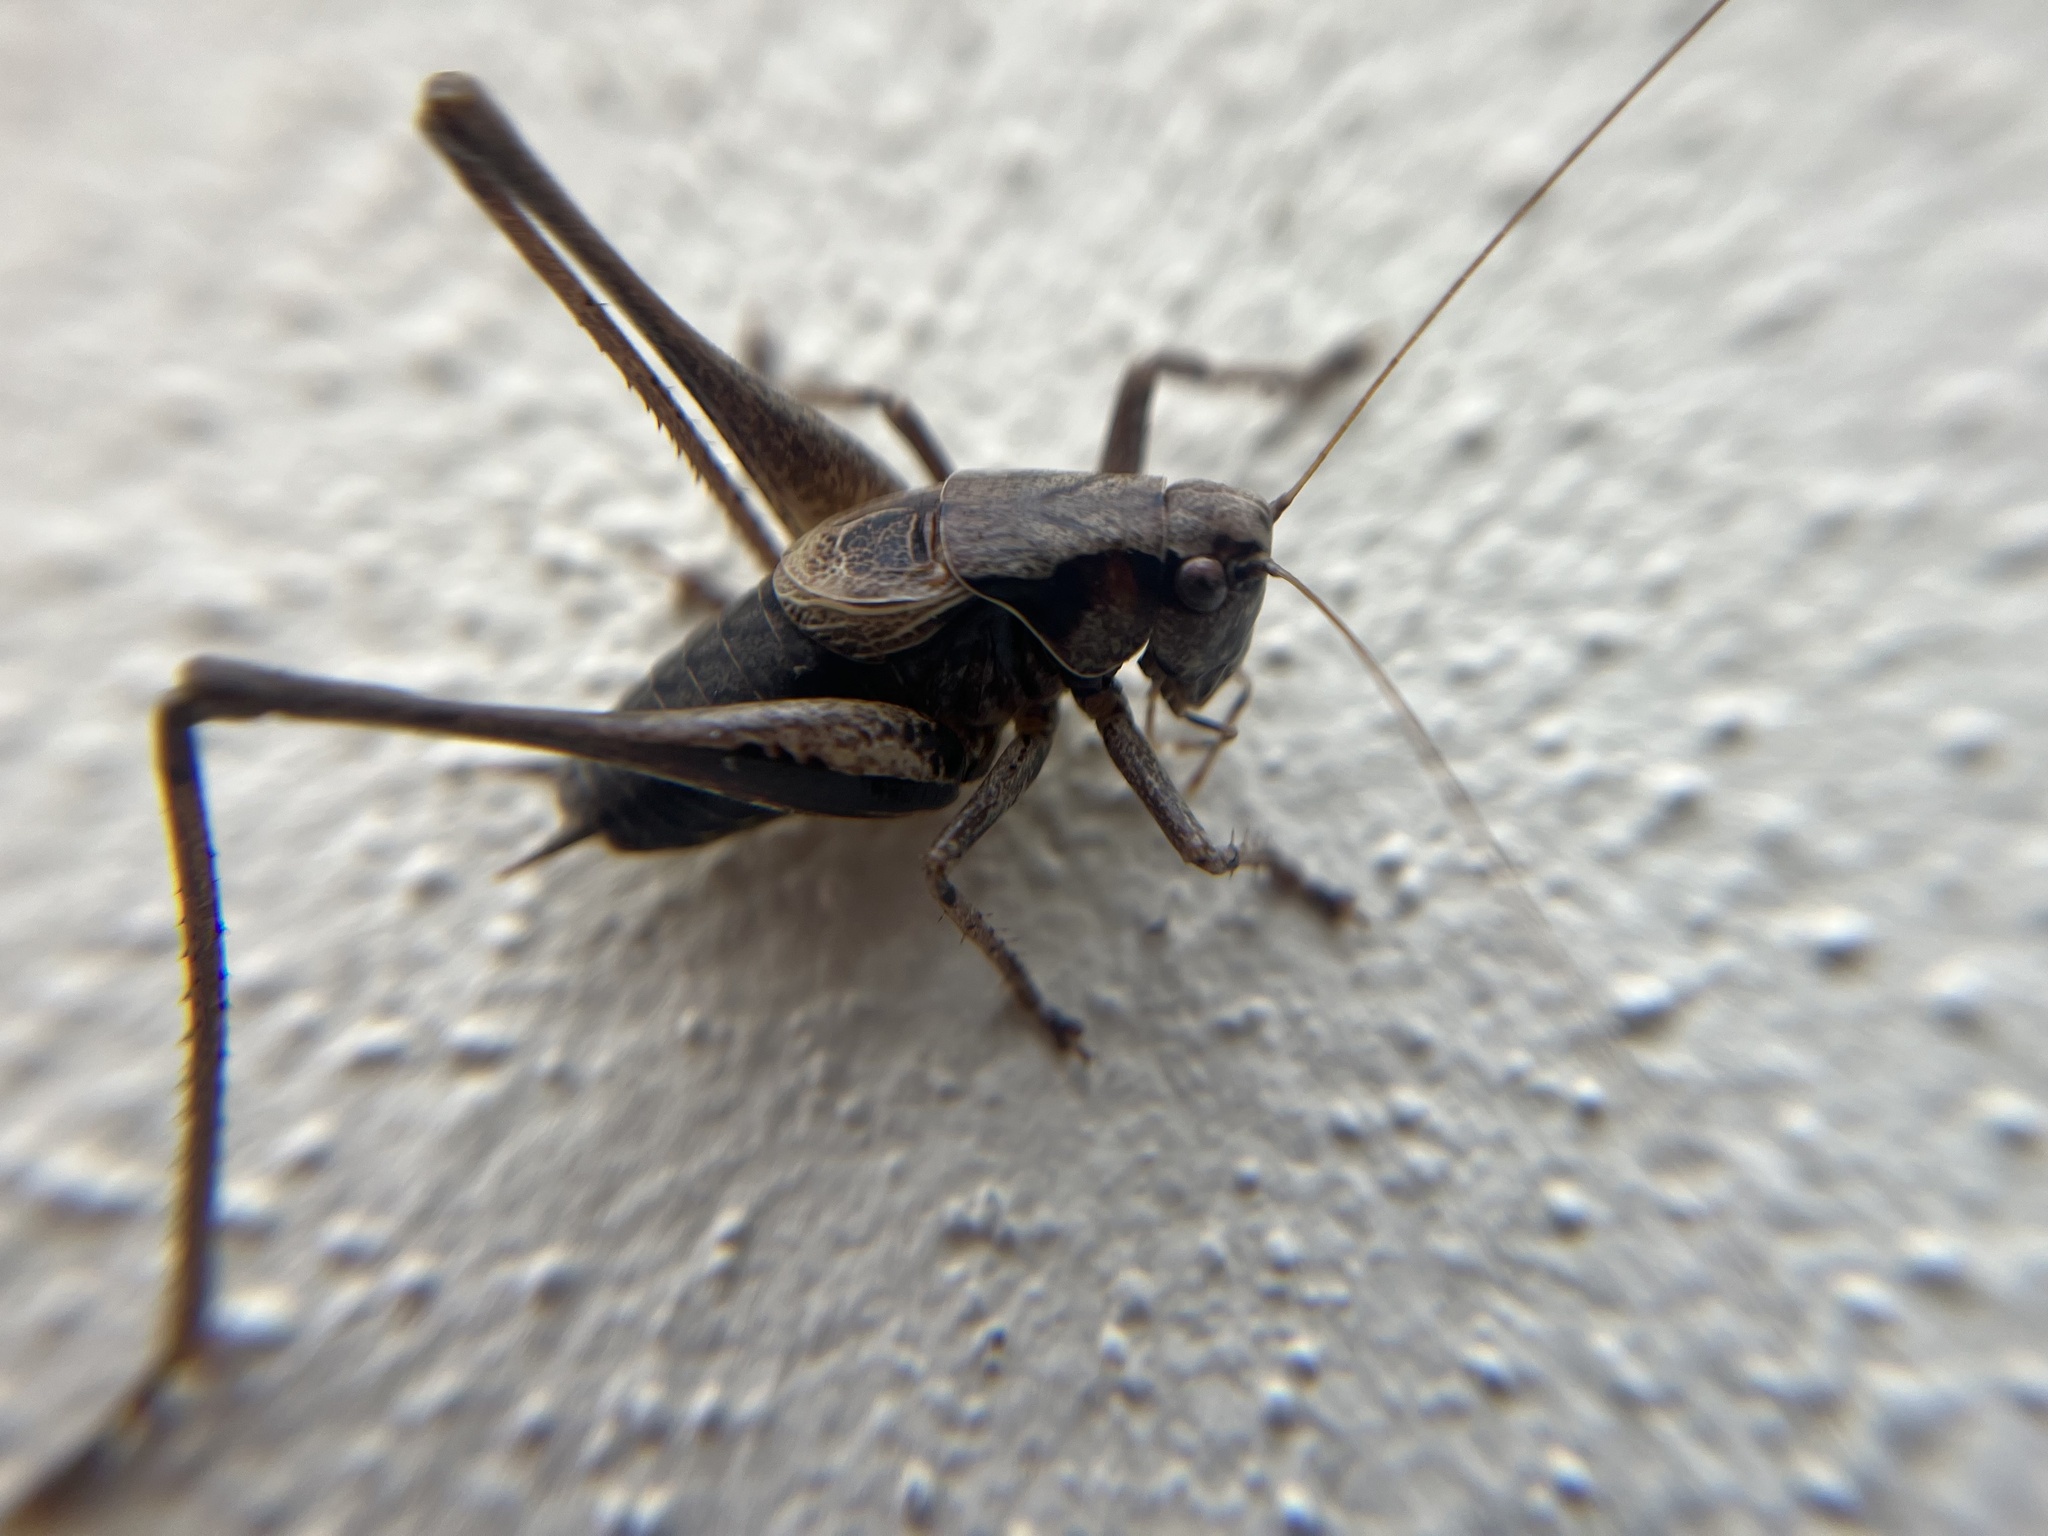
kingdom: Animalia
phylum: Arthropoda
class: Insecta
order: Orthoptera
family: Tettigoniidae
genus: Pholidoptera
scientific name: Pholidoptera griseoaptera
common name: Dark bush-cricket
